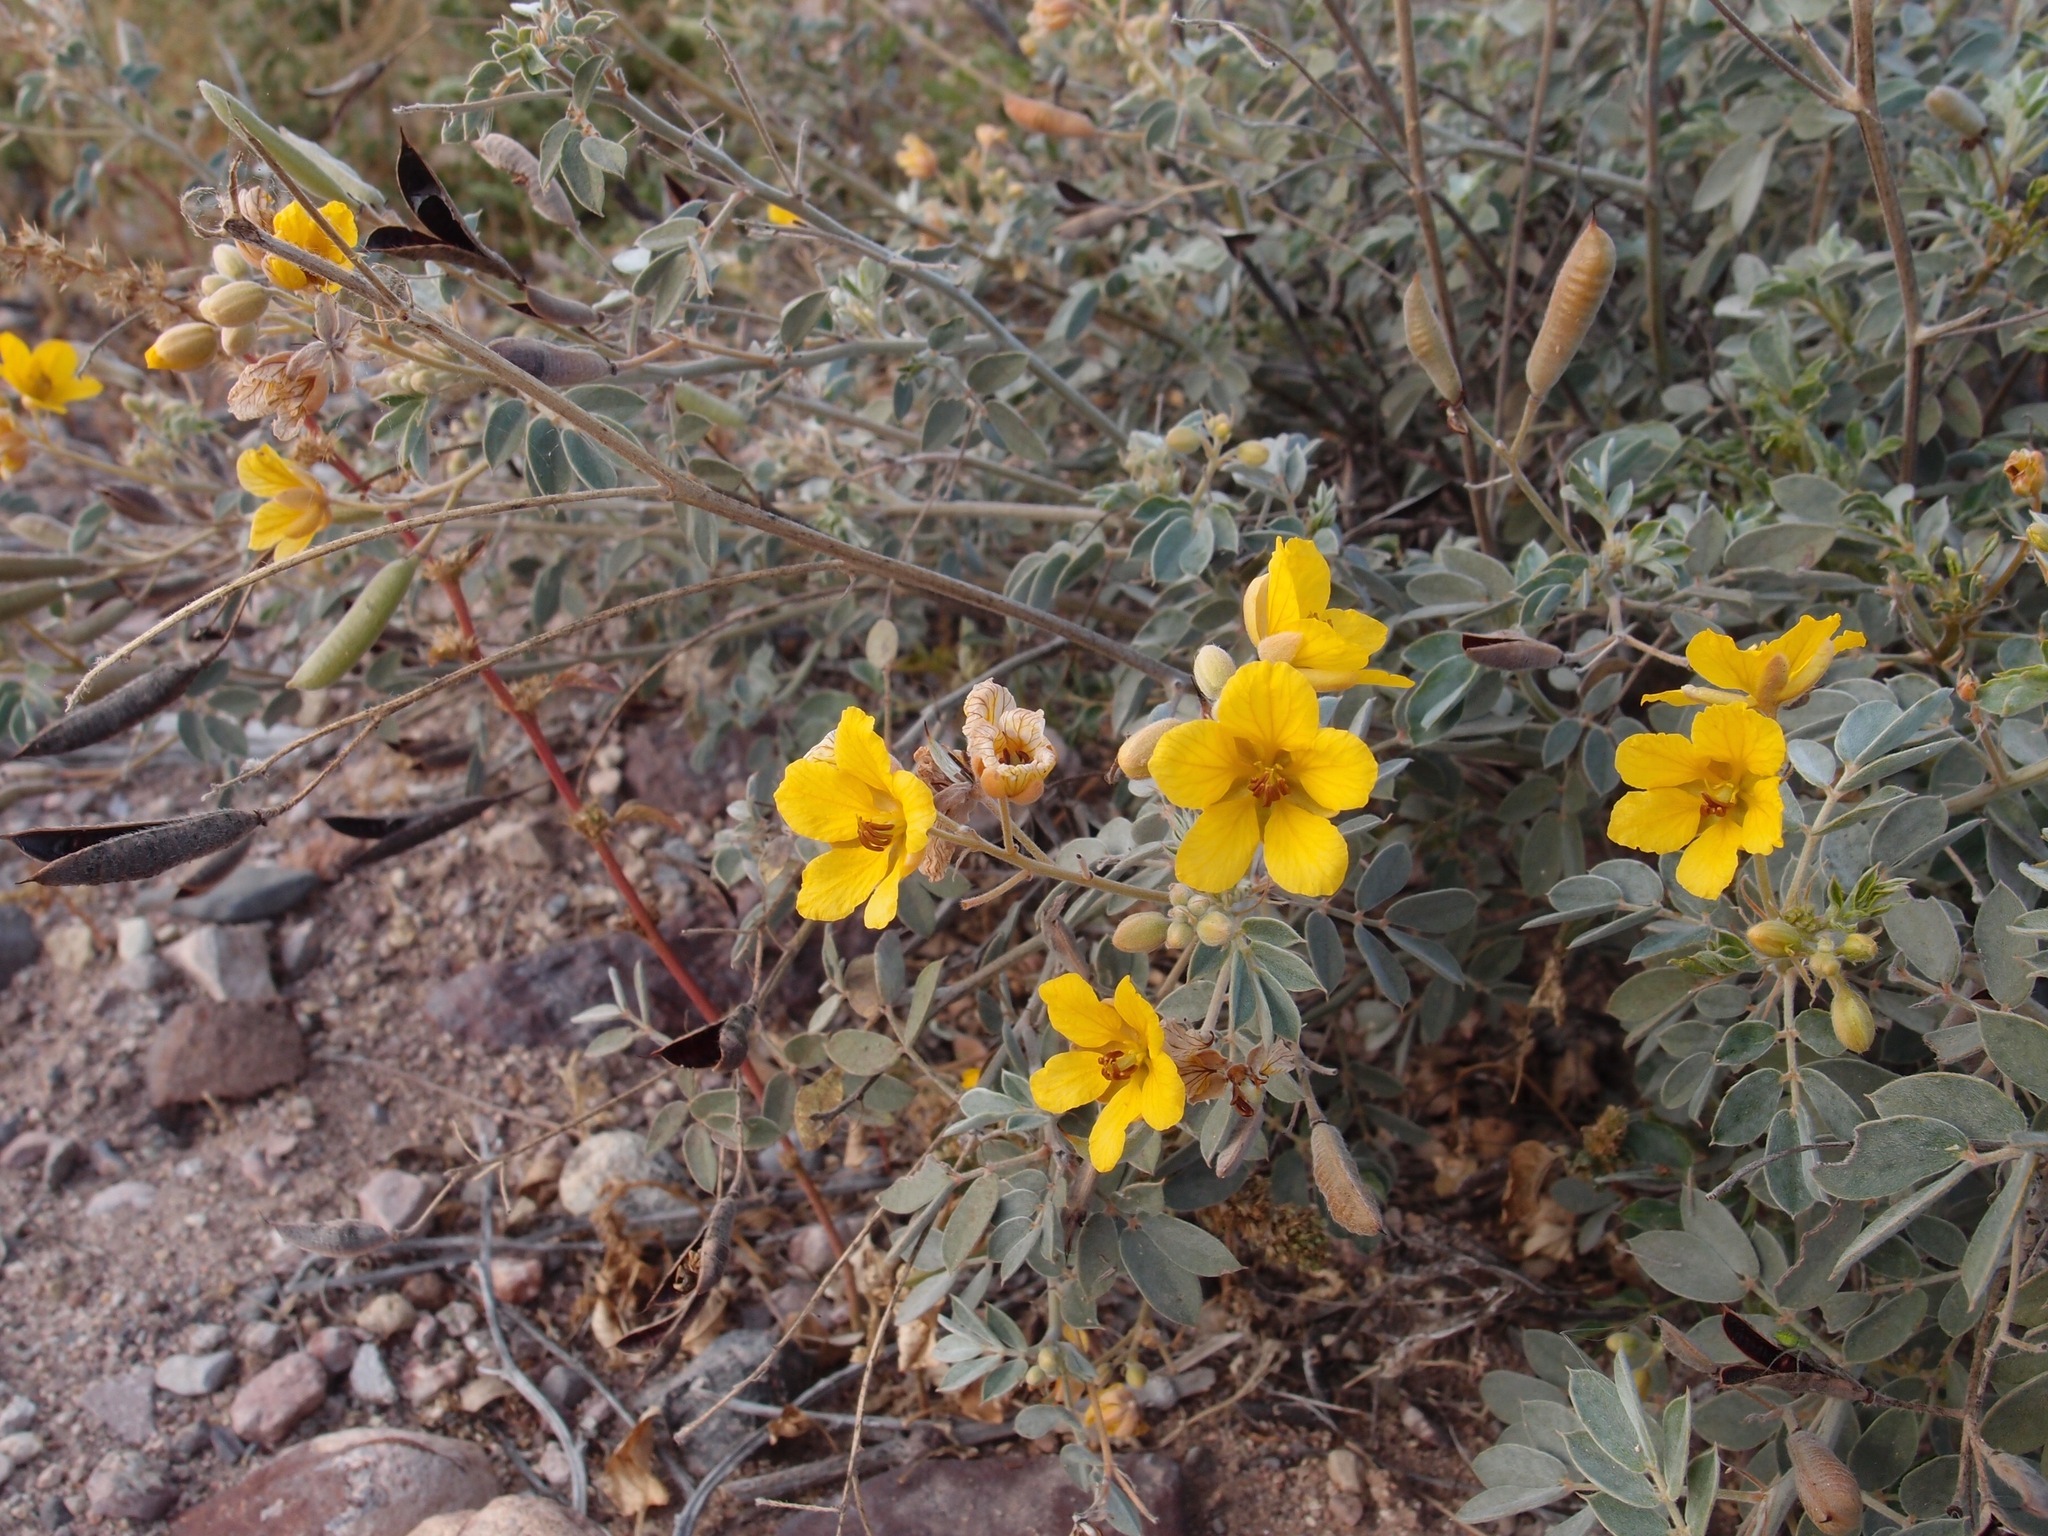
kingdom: Plantae
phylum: Tracheophyta
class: Magnoliopsida
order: Fabales
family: Fabaceae
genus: Senna
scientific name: Senna covesii
